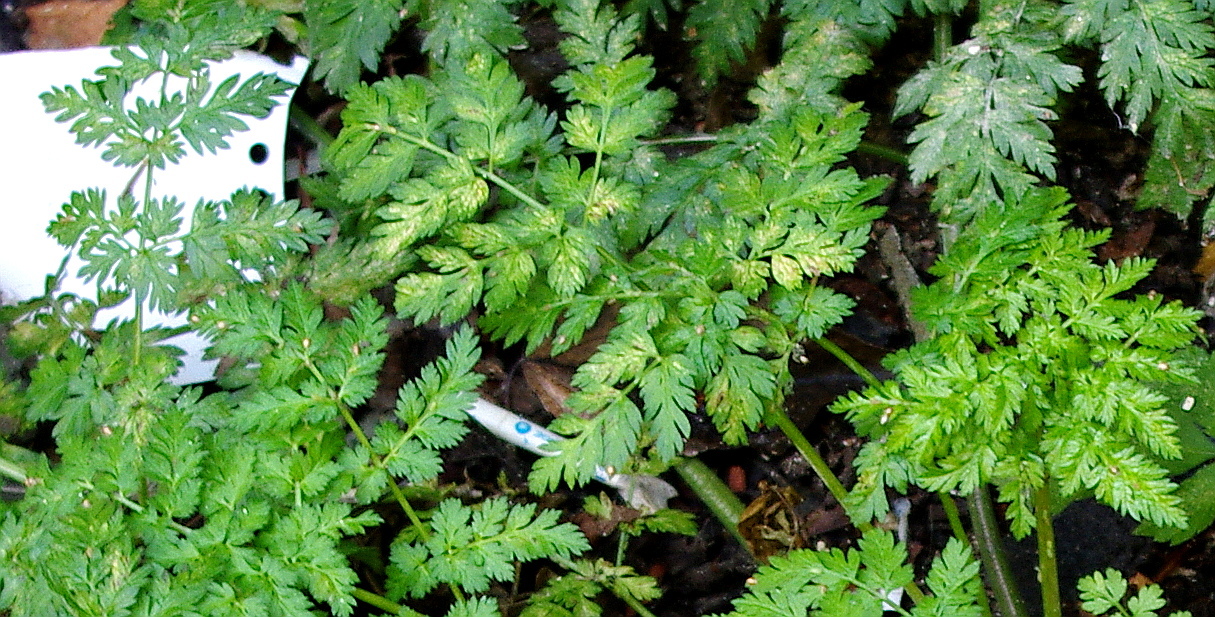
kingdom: Plantae
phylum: Tracheophyta
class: Magnoliopsida
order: Apiales
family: Apiaceae
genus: Anthriscus
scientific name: Anthriscus sylvestris
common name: Cow parsley
